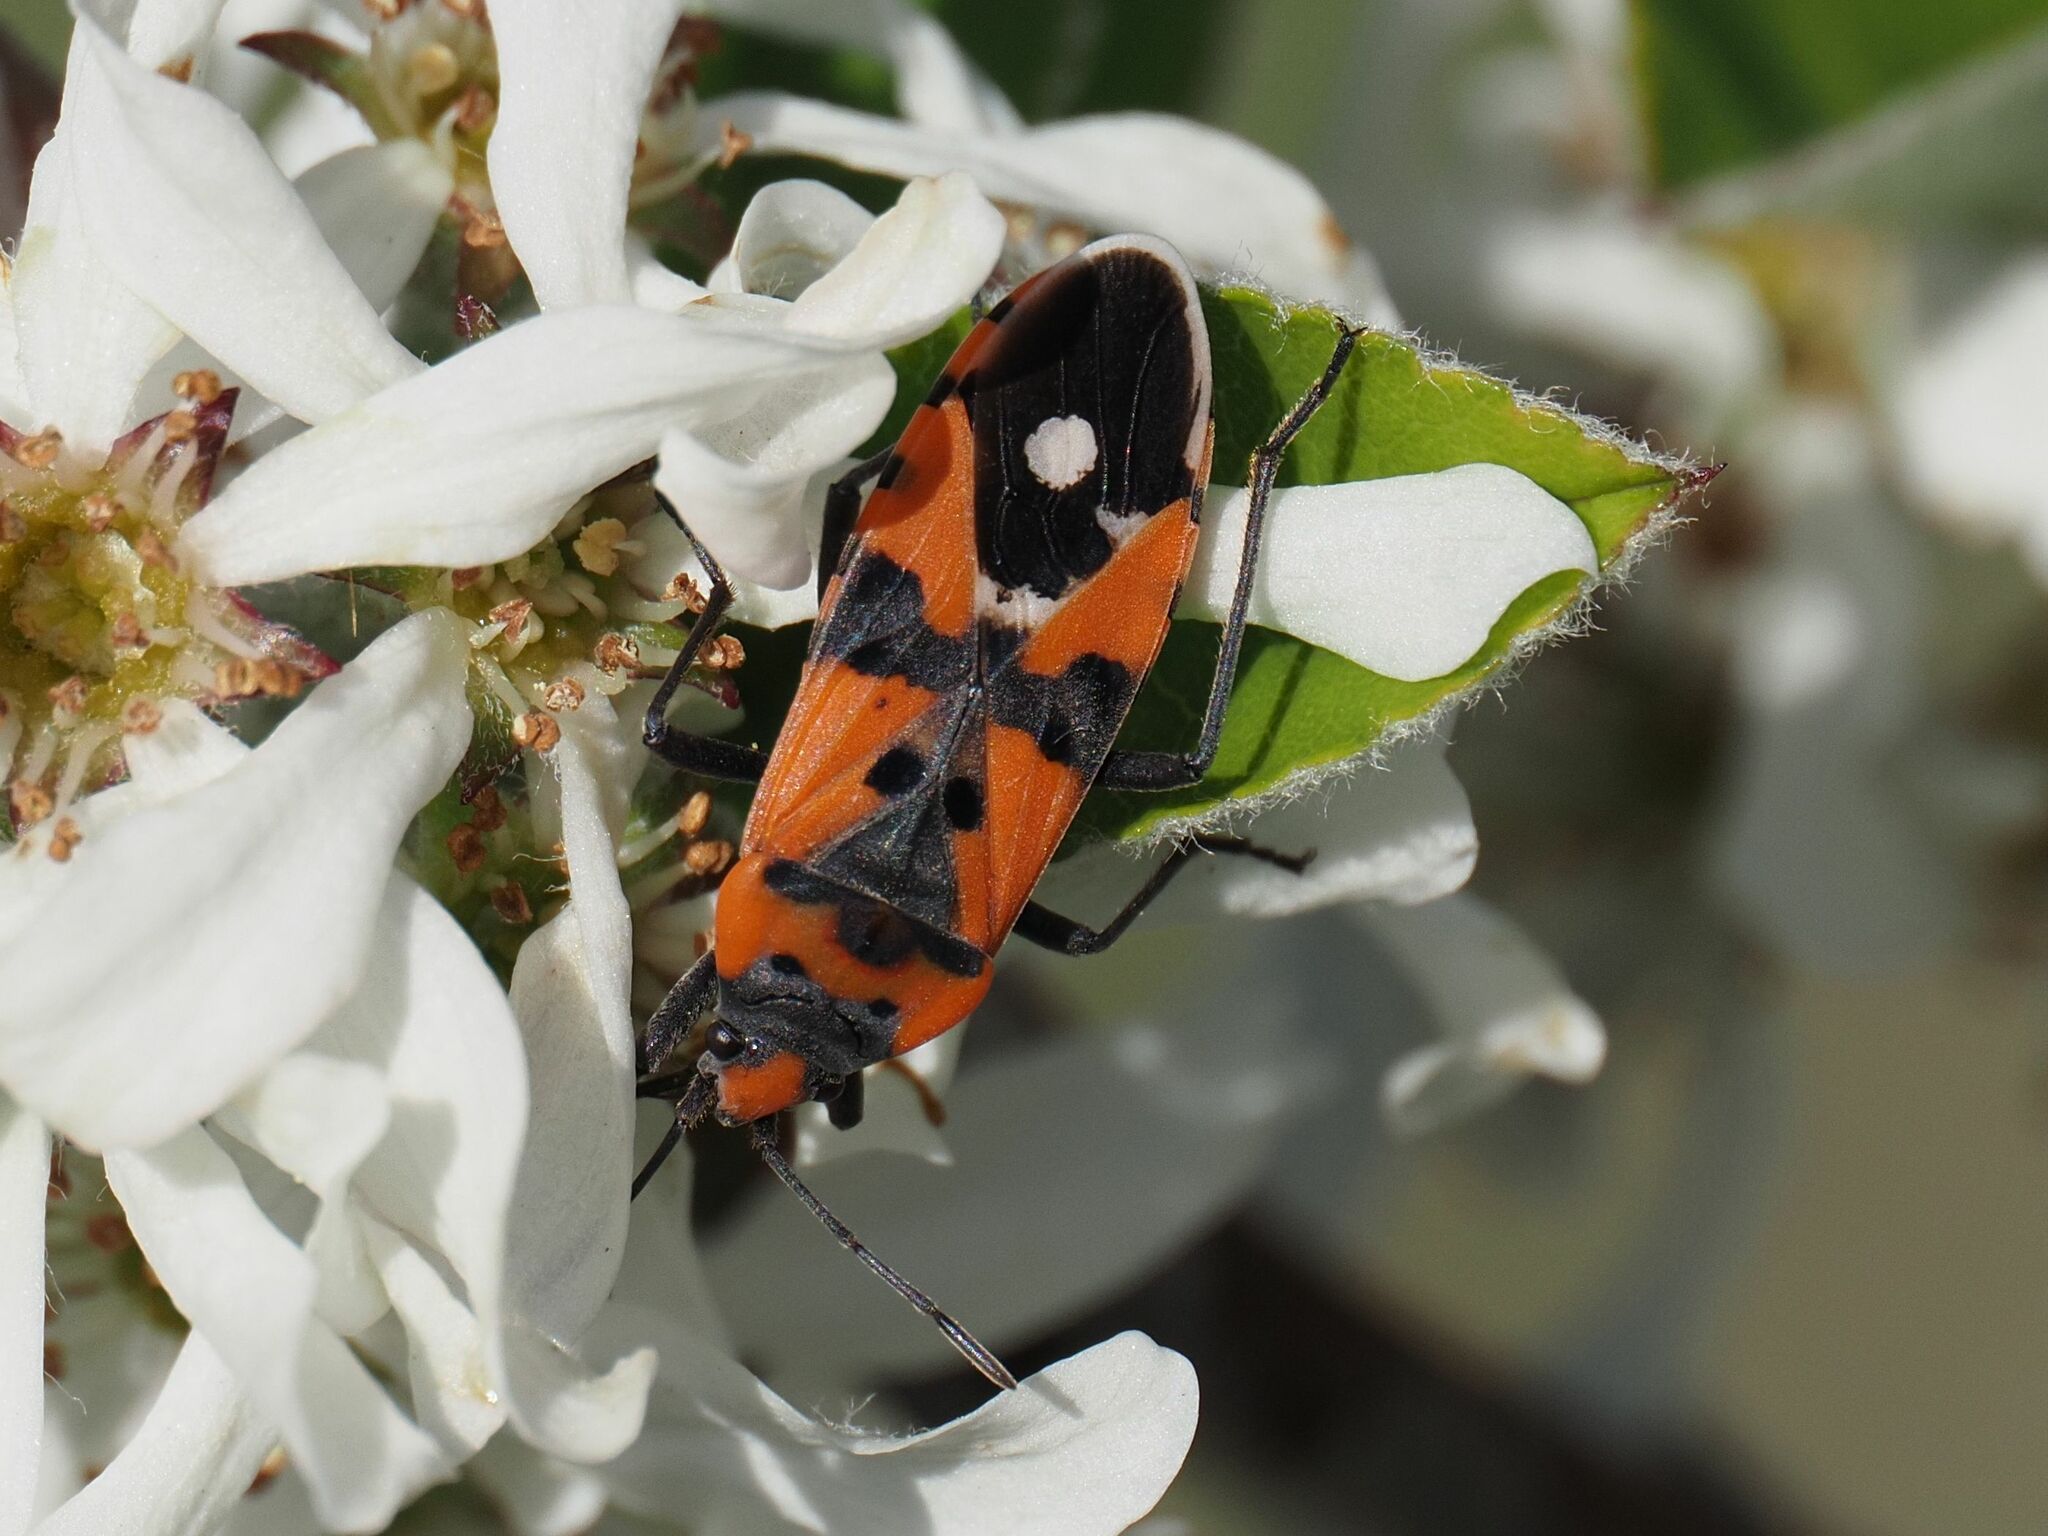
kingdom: Animalia
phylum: Arthropoda
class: Insecta
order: Hemiptera
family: Lygaeidae
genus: Lygaeus
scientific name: Lygaeus equestris
